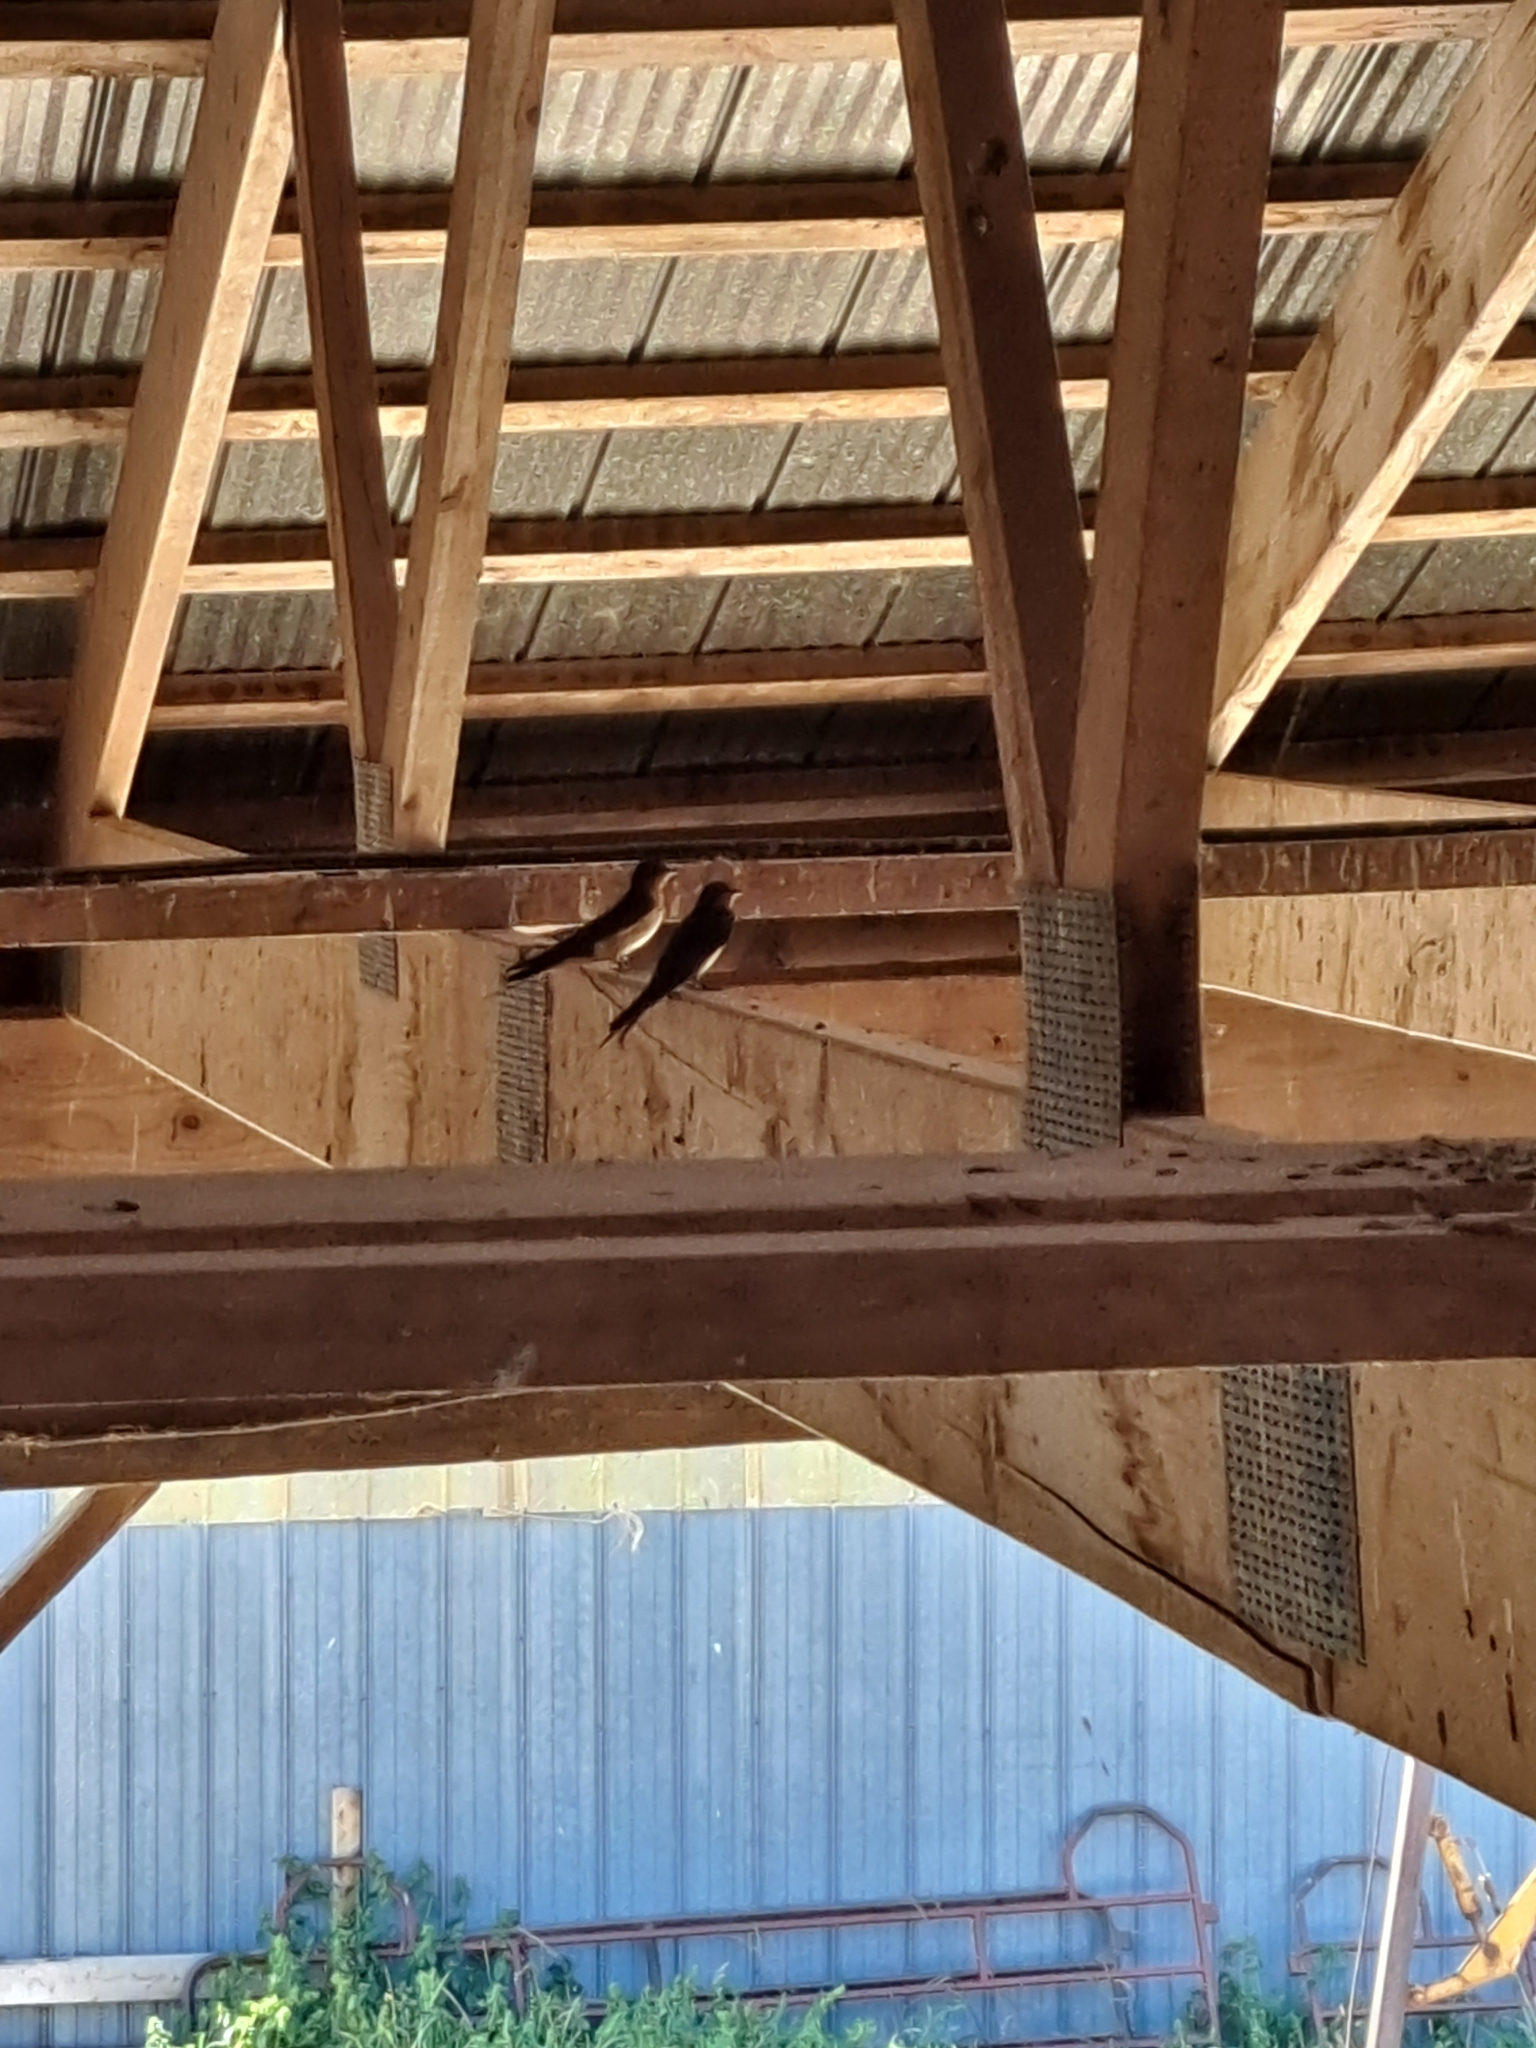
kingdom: Animalia
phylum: Chordata
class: Aves
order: Passeriformes
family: Hirundinidae
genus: Hirundo
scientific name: Hirundo rustica
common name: Barn swallow
